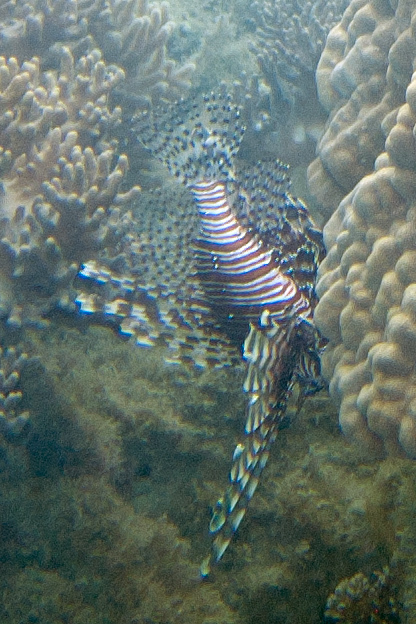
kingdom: Animalia
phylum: Chordata
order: Scorpaeniformes
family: Scorpaenidae
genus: Pterois
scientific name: Pterois volitans
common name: Lionfish
